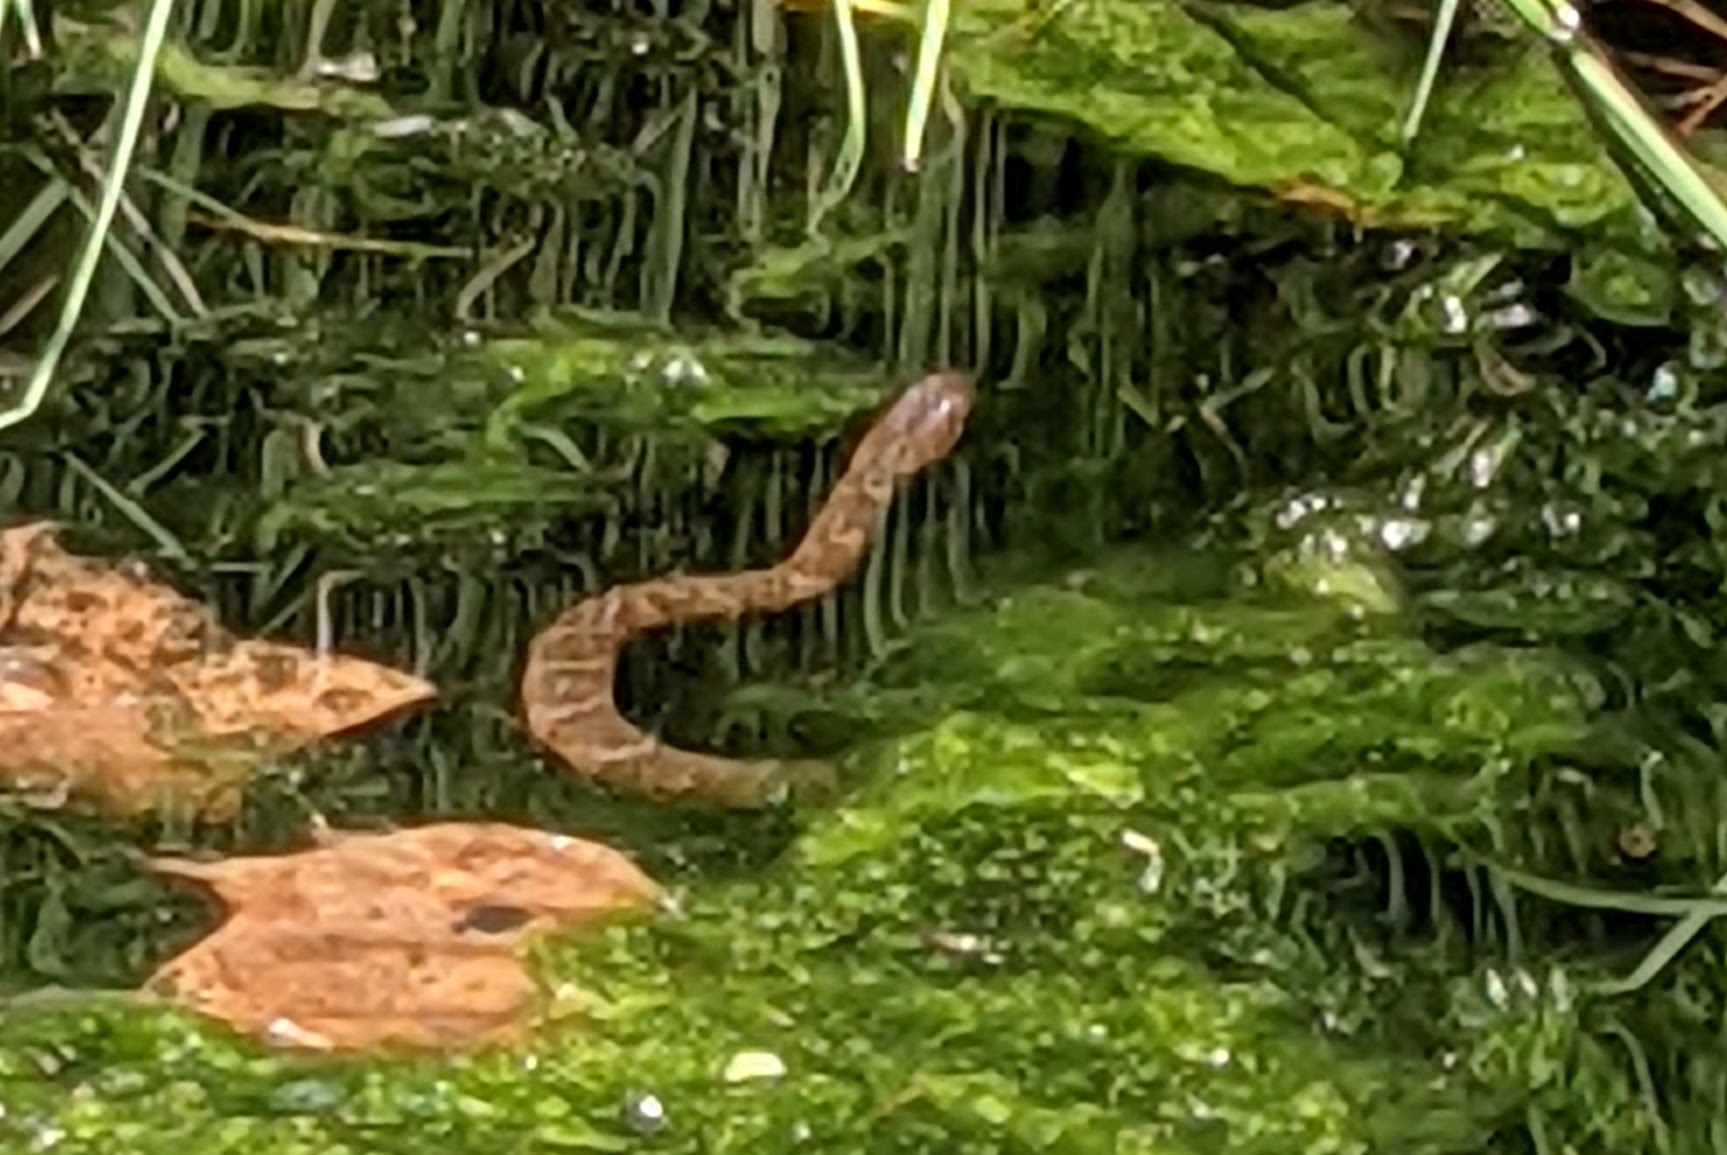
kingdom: Animalia
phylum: Chordata
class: Squamata
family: Colubridae
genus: Nerodia
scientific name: Nerodia sipedon
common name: Northern water snake
